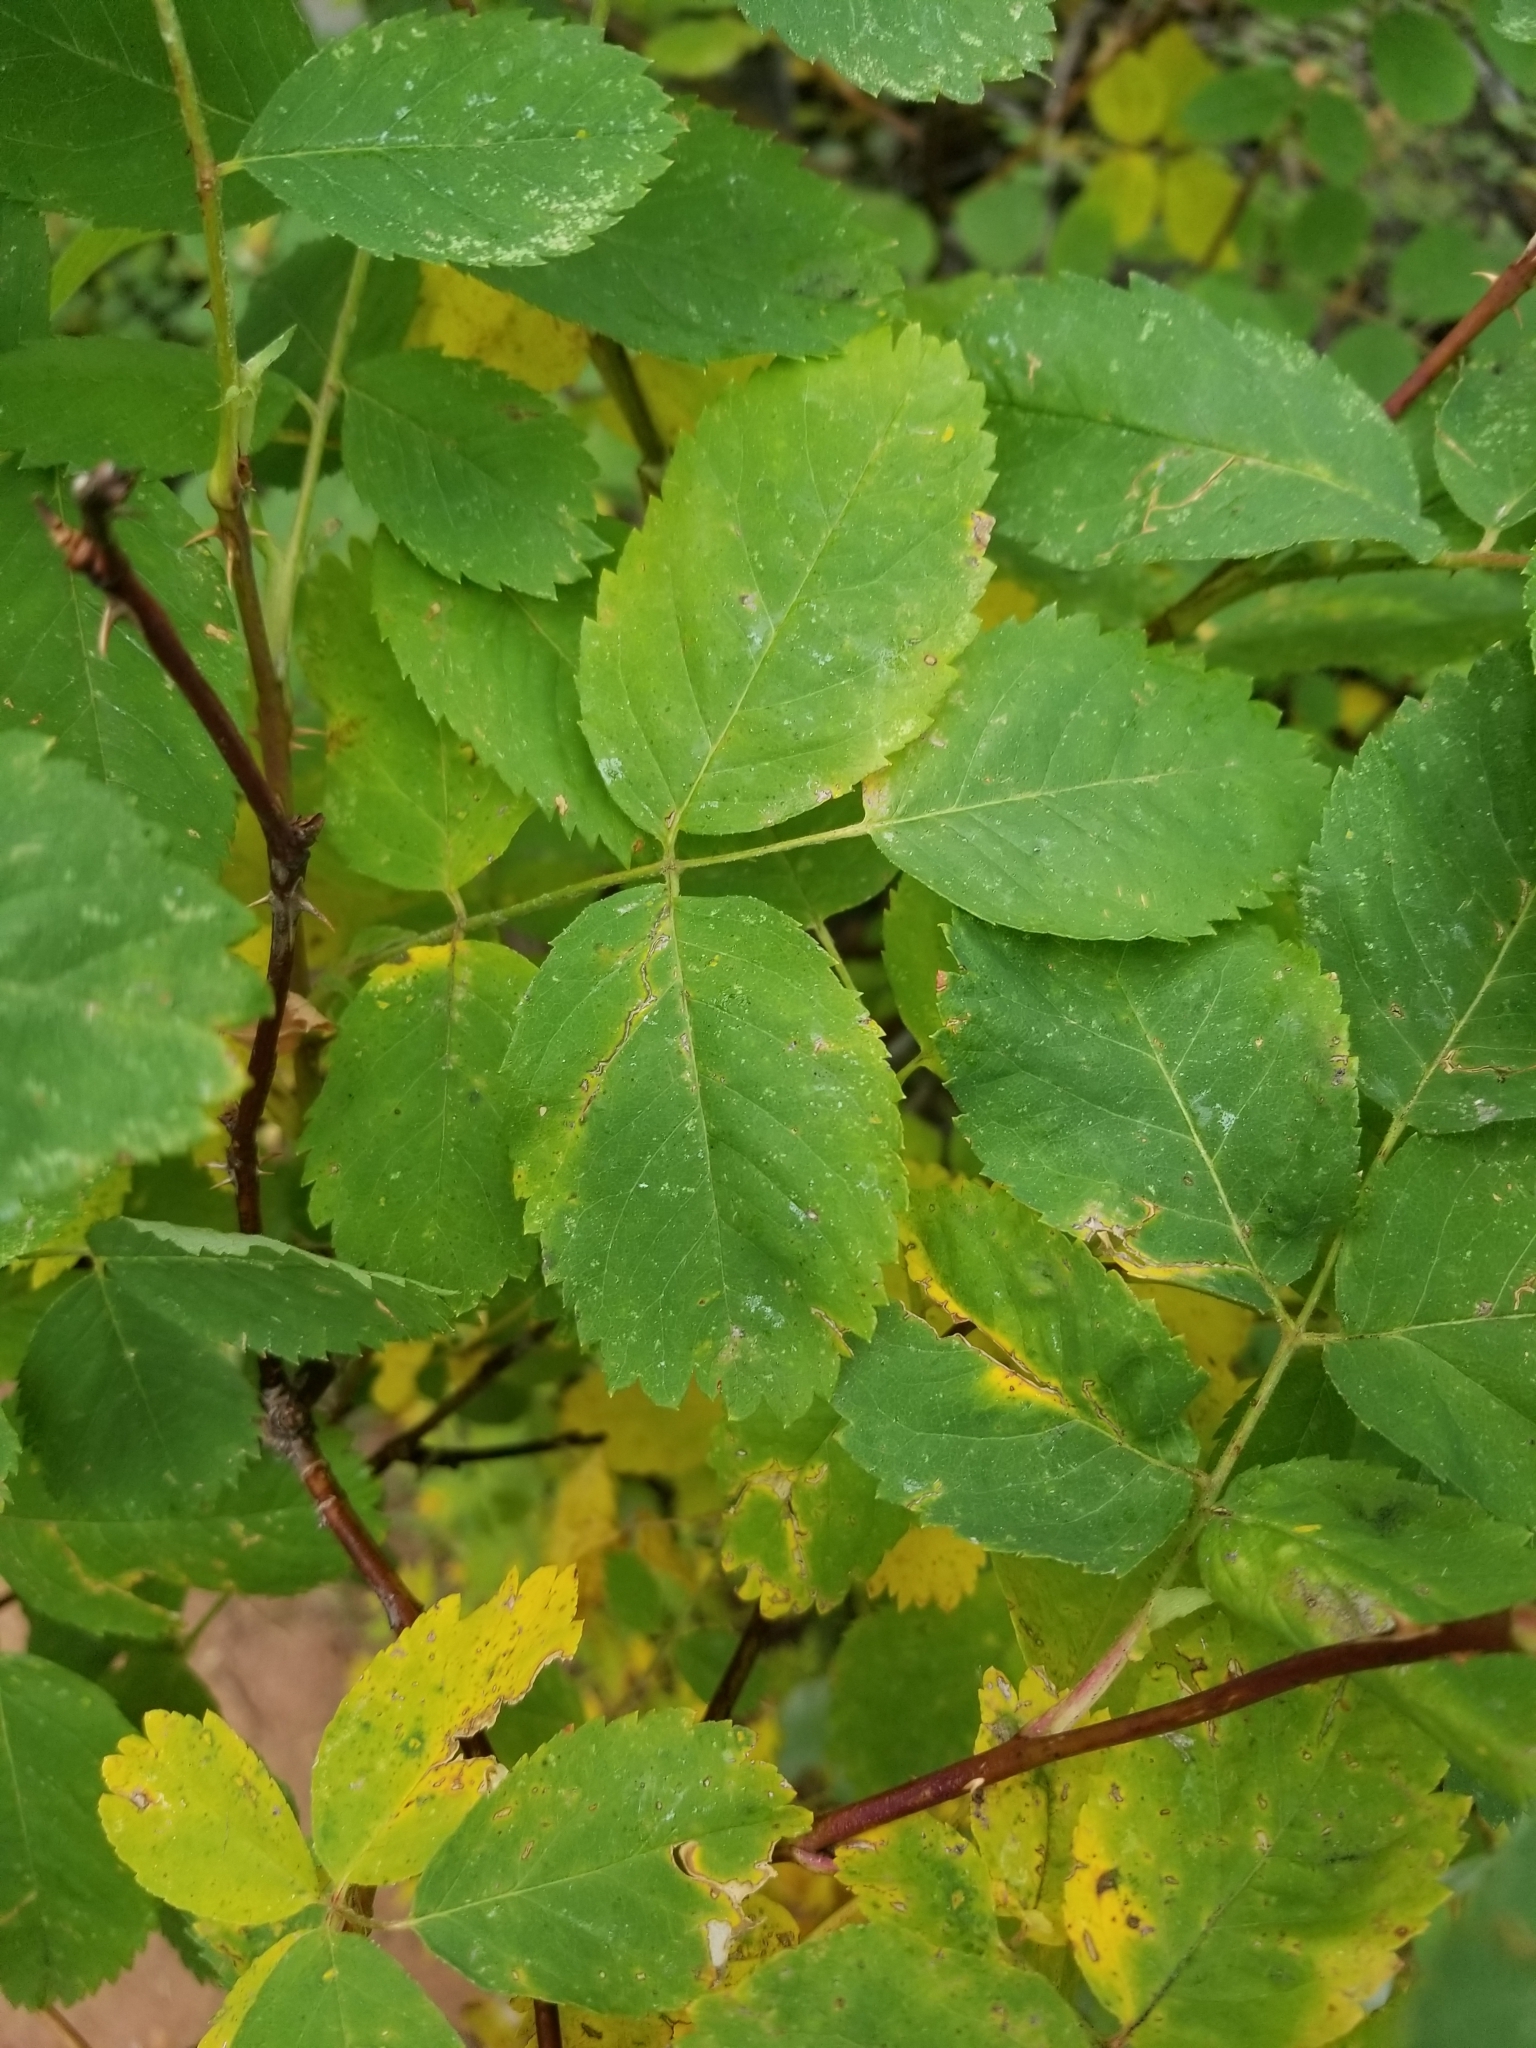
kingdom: Plantae
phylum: Tracheophyta
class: Magnoliopsida
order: Rosales
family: Rosaceae
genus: Rosa
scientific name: Rosa woodsii
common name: Woods's rose
